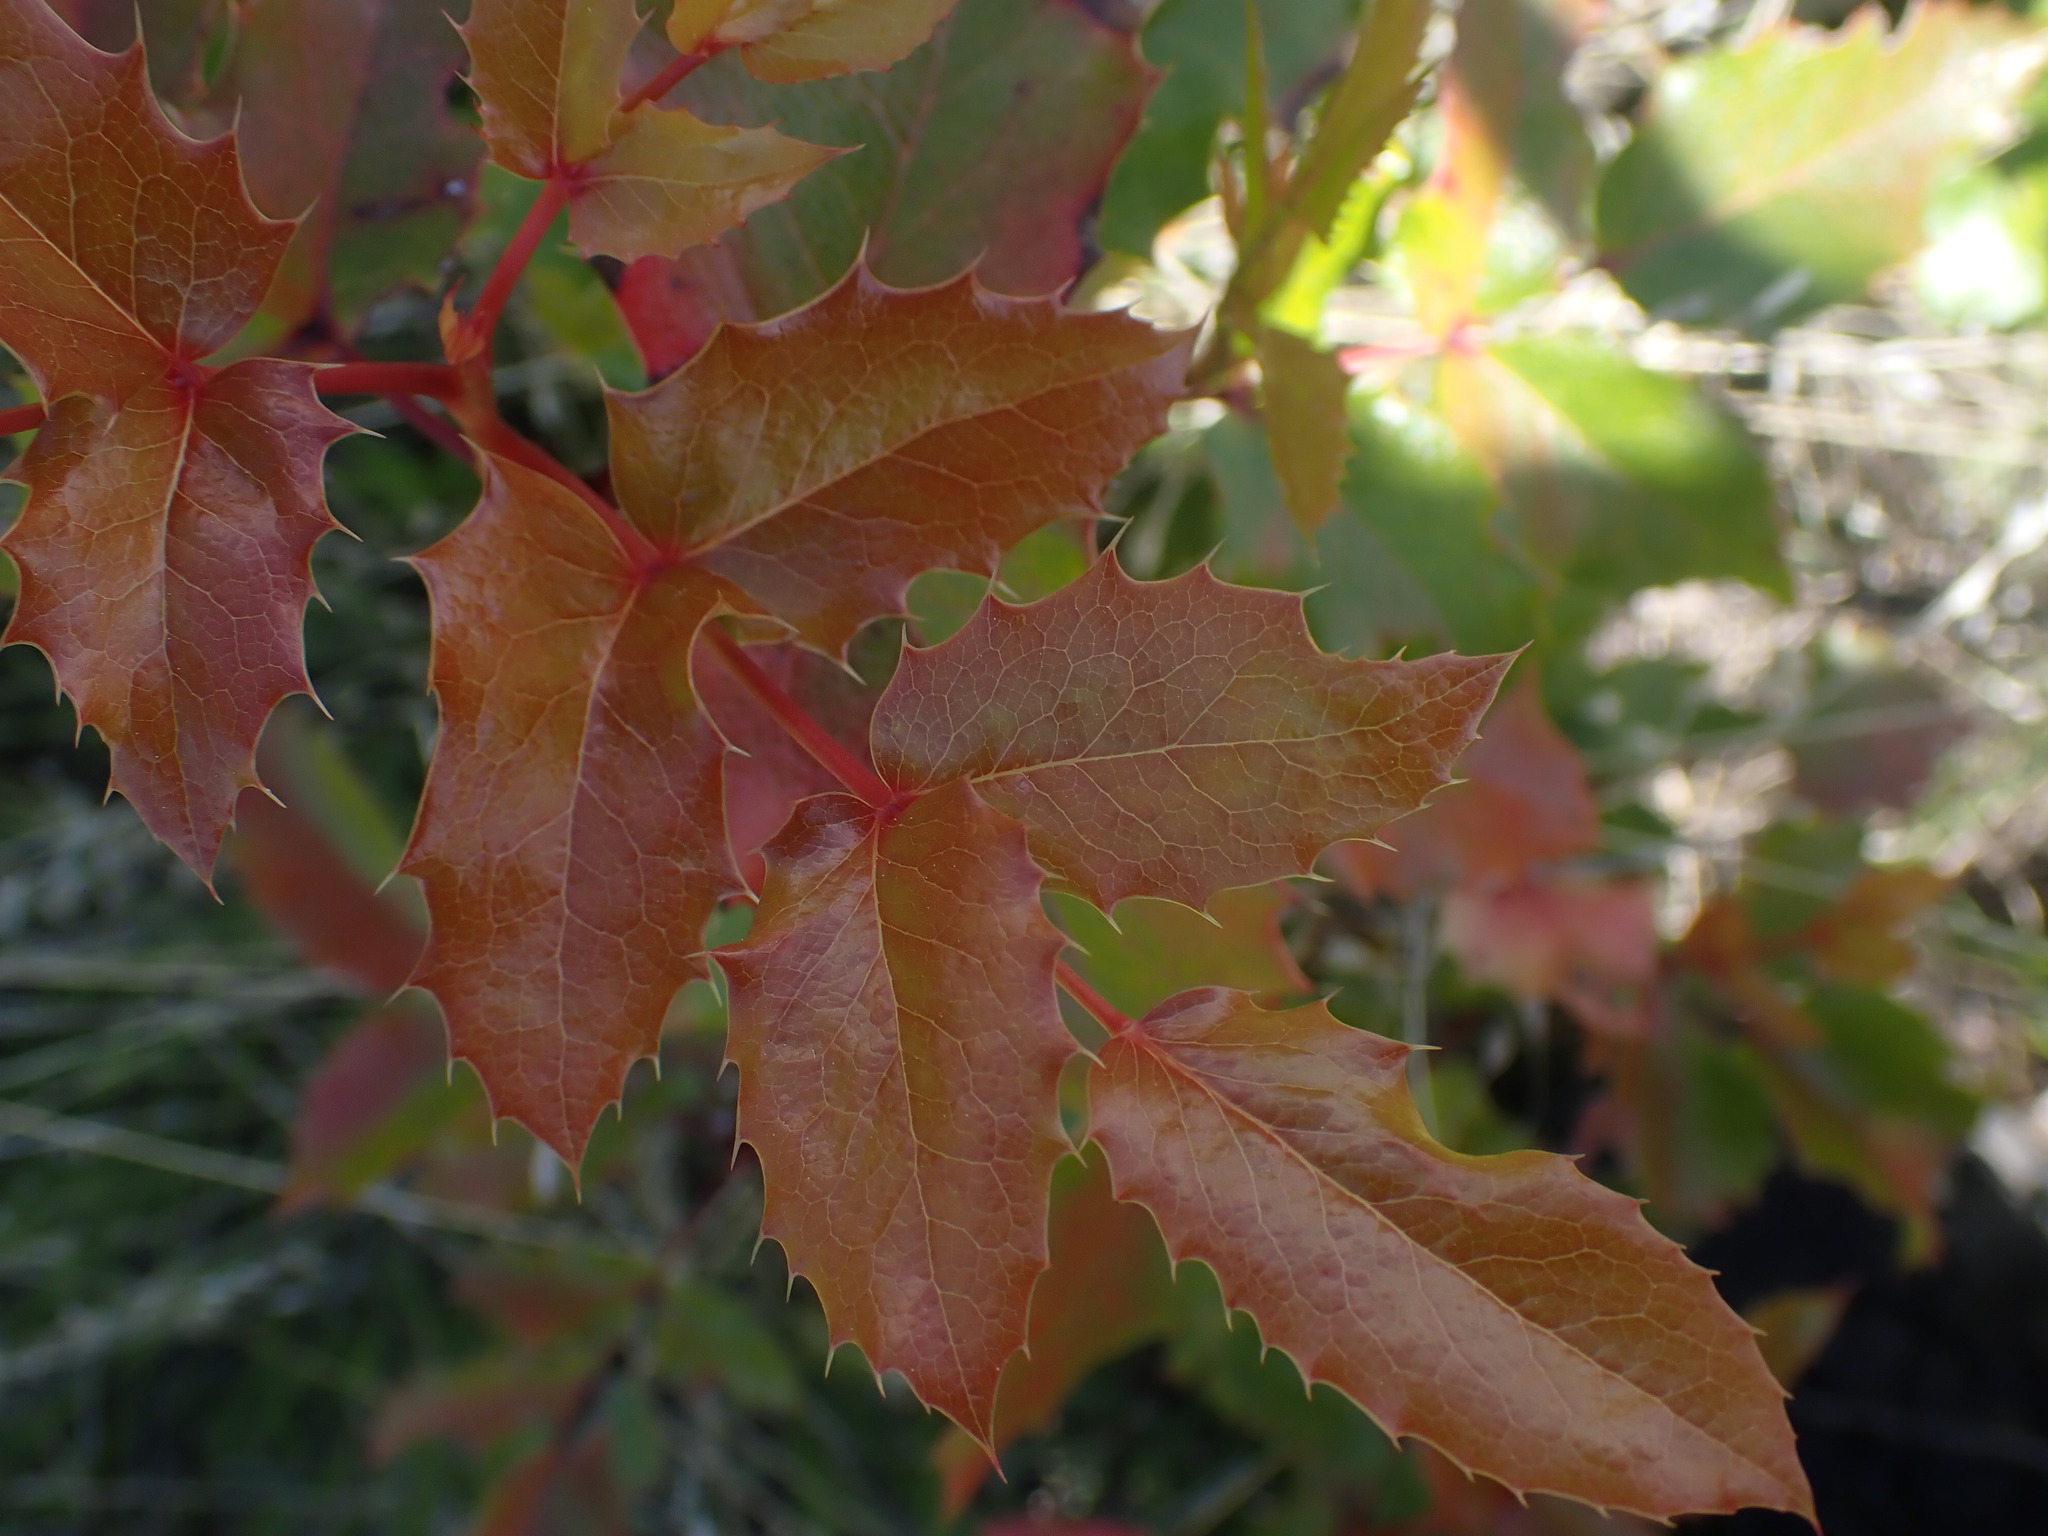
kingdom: Plantae
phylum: Tracheophyta
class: Magnoliopsida
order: Ranunculales
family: Berberidaceae
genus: Mahonia
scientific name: Mahonia aquifolium
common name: Oregon-grape
